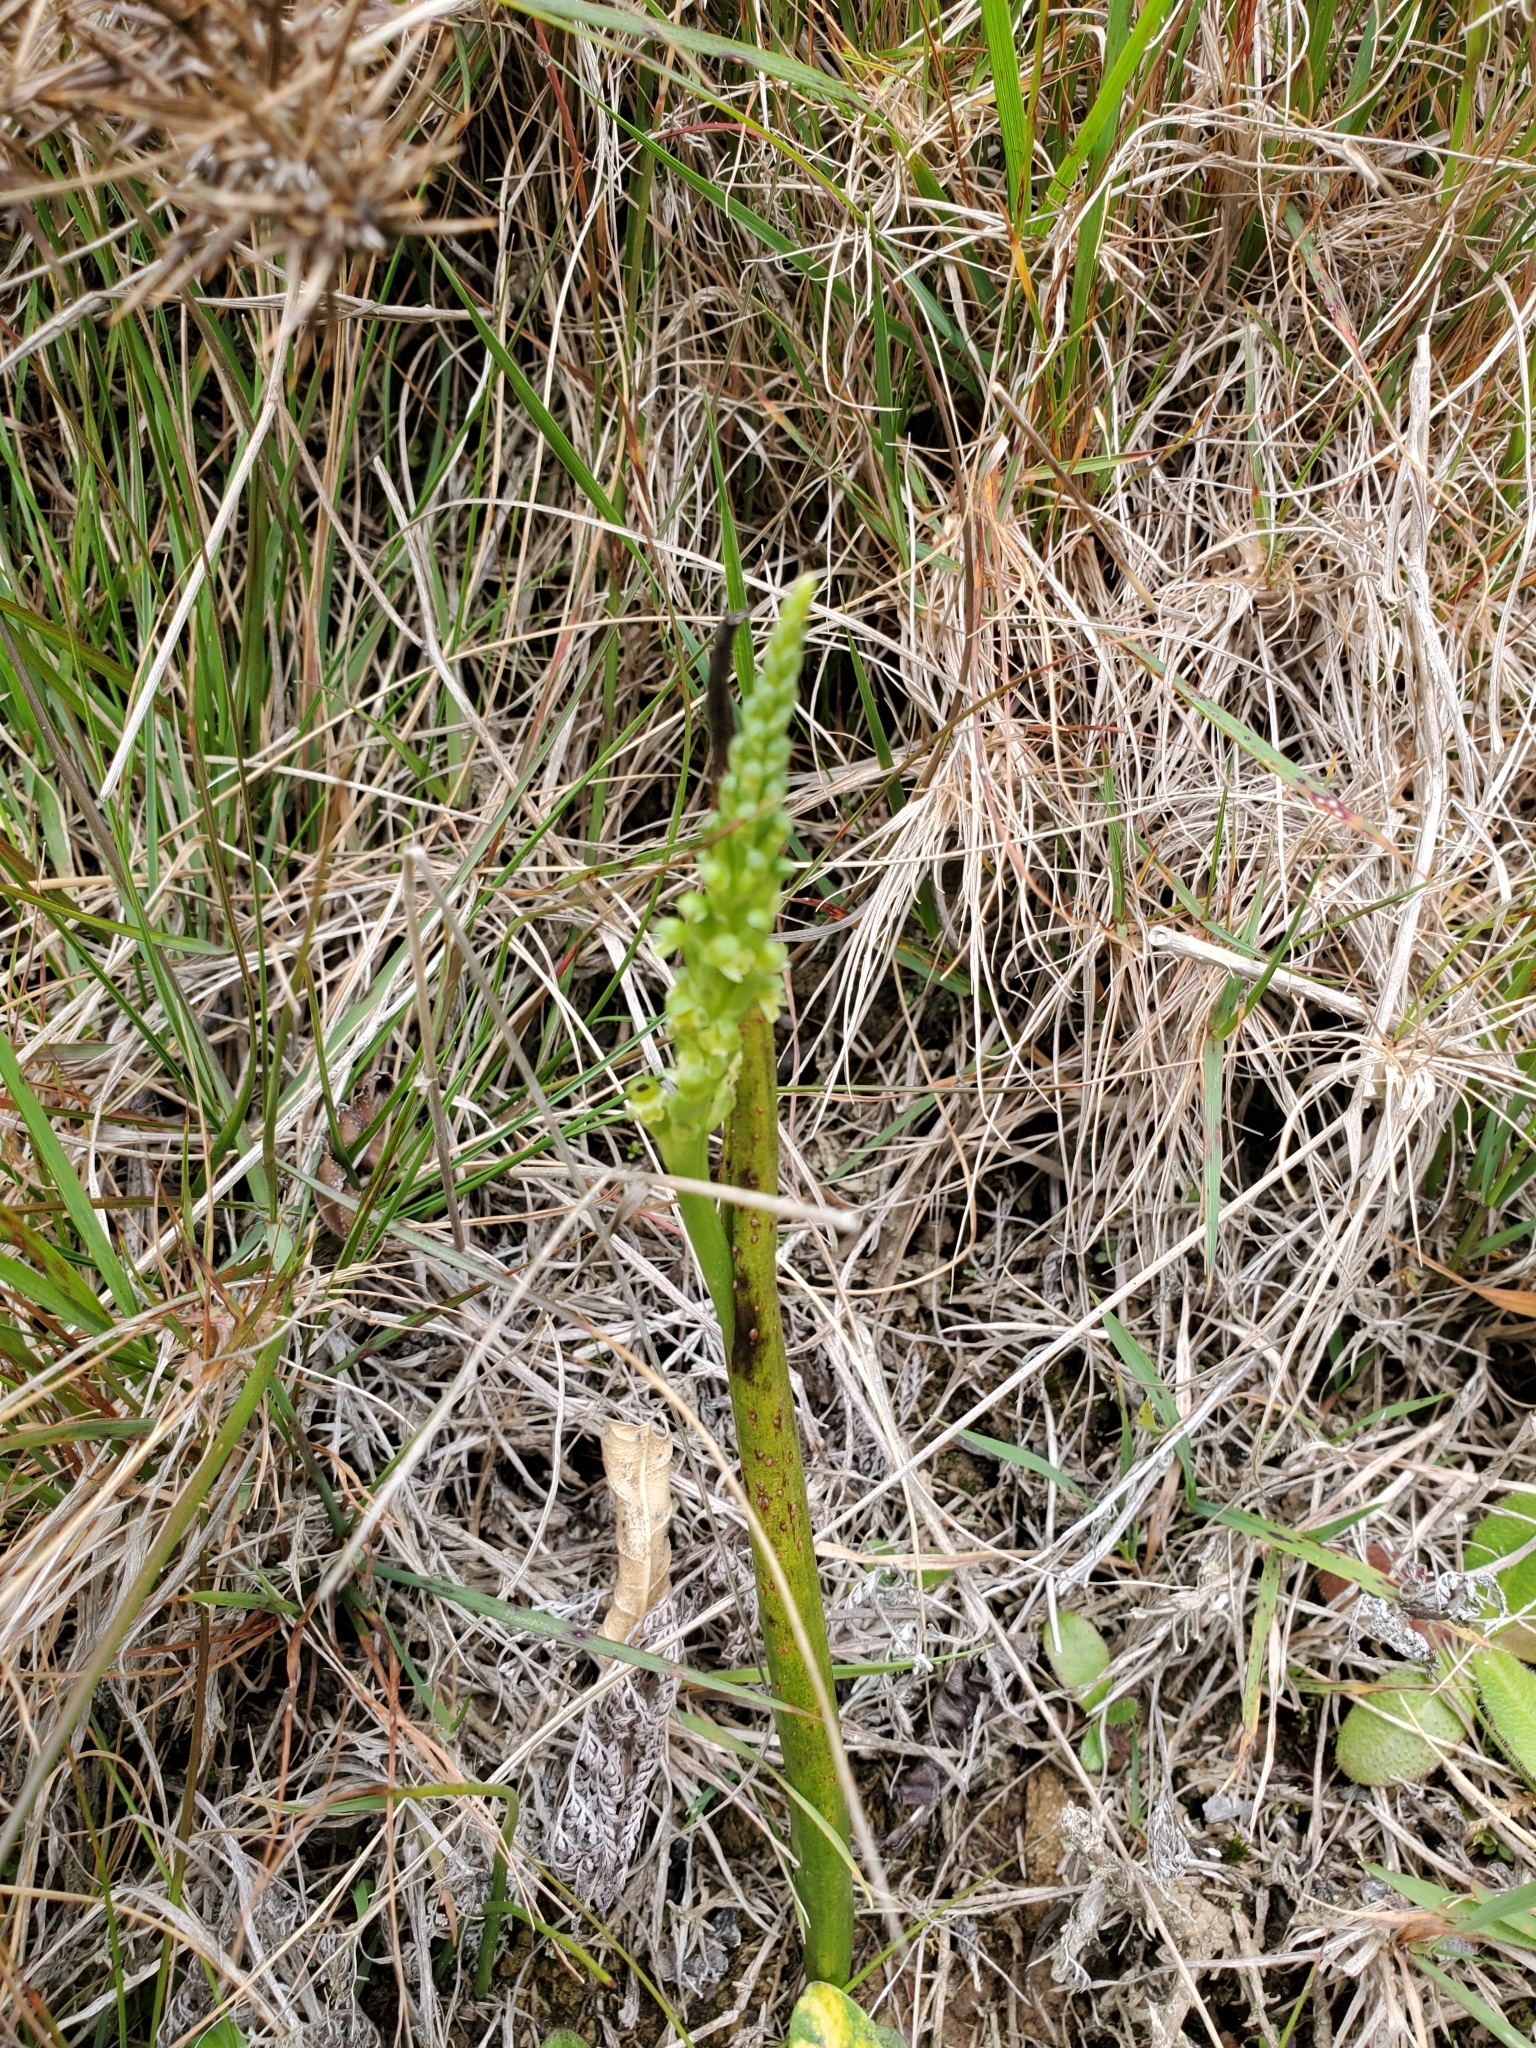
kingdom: Plantae
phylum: Tracheophyta
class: Liliopsida
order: Asparagales
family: Orchidaceae
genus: Microtis
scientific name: Microtis unifolia
